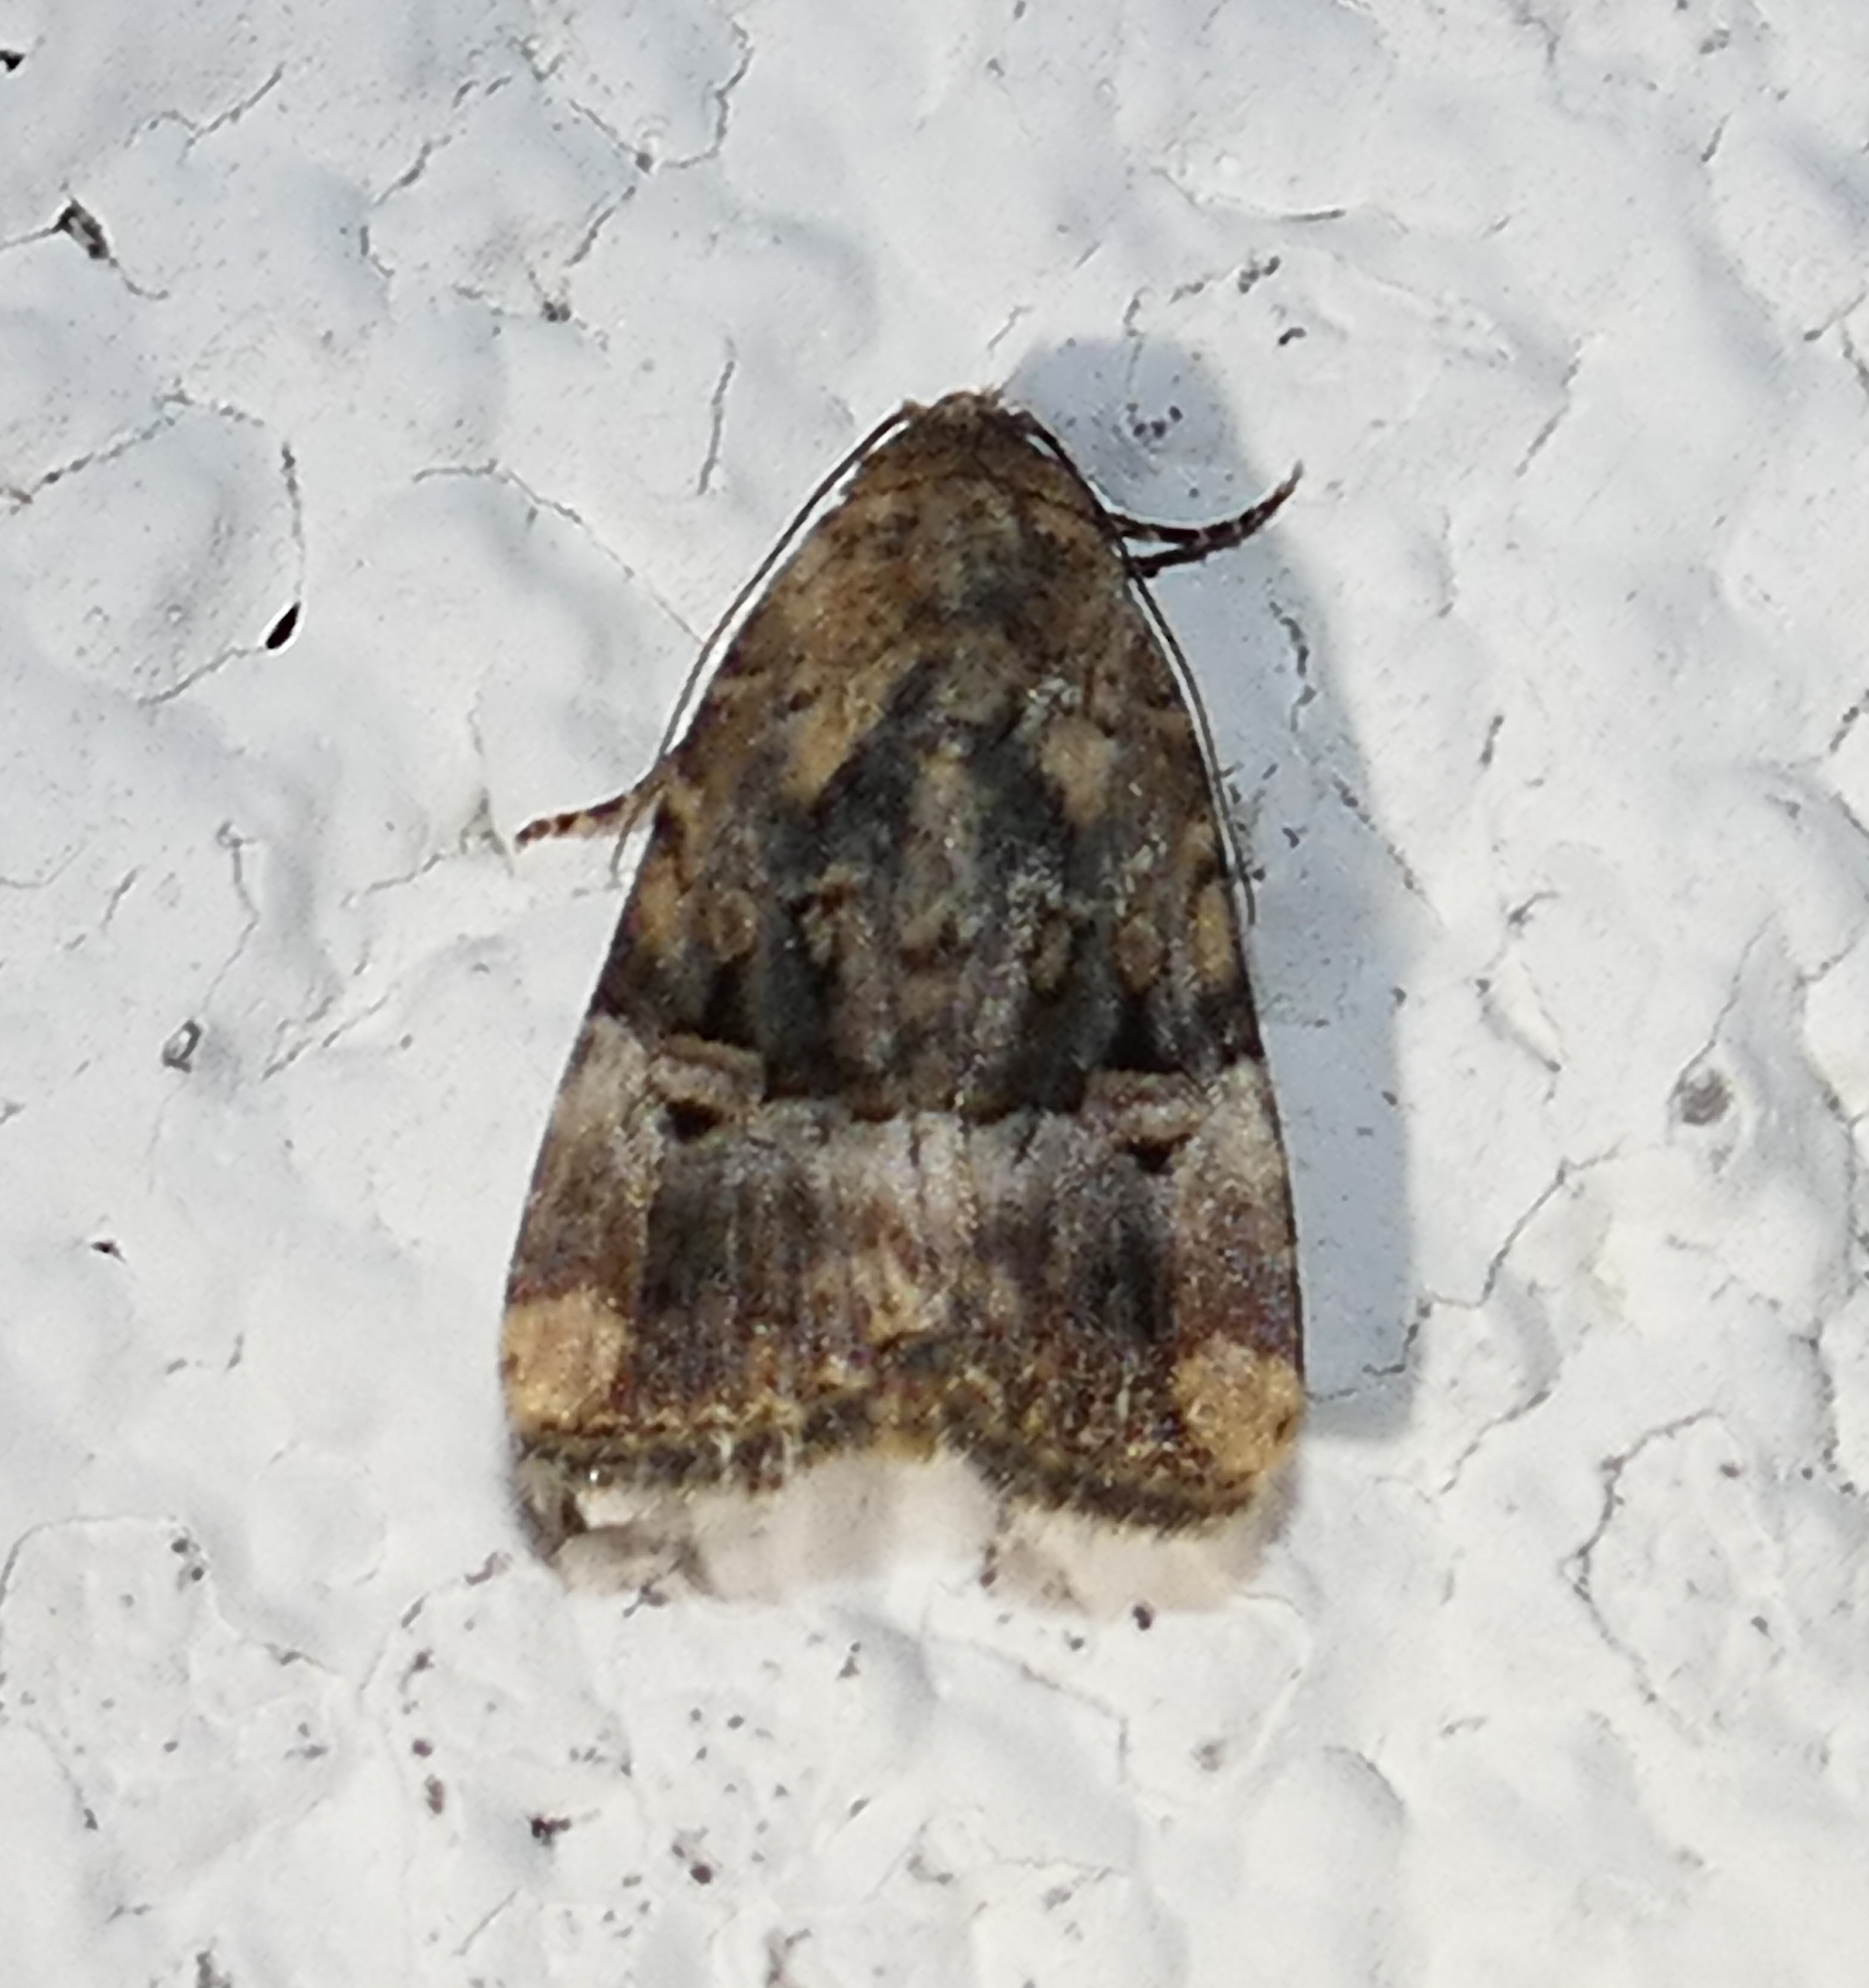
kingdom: Animalia
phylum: Arthropoda
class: Insecta
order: Lepidoptera
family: Noctuidae
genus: Elaphria
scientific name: Elaphria chalcedonia
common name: Chalcedony midget
